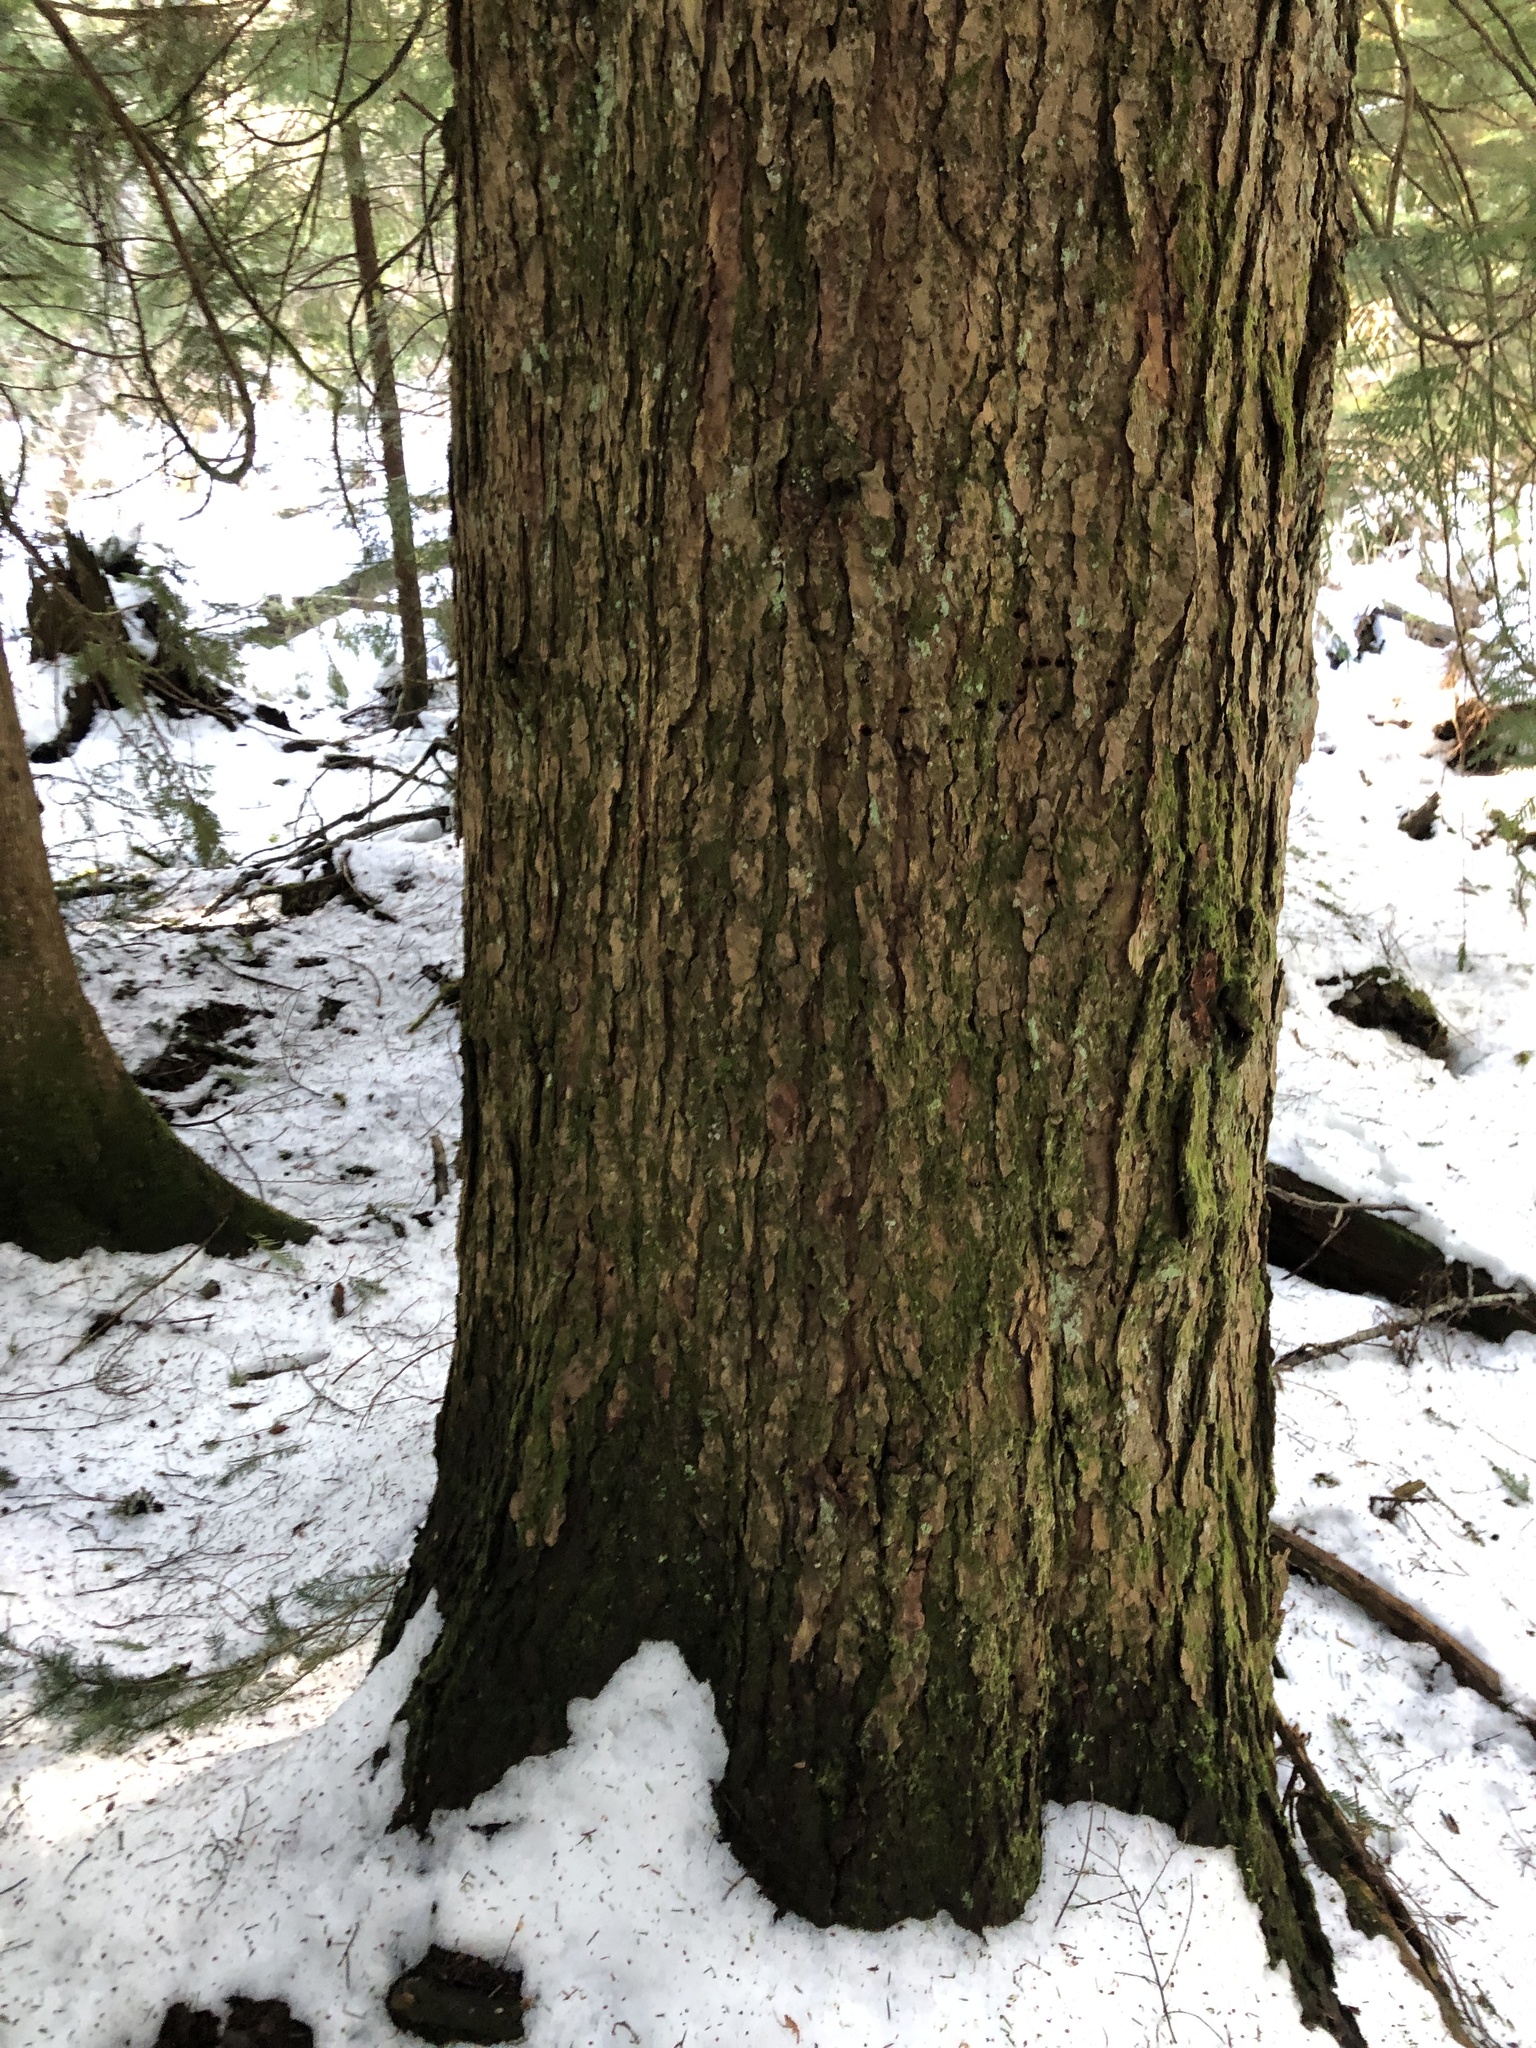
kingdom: Plantae
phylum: Tracheophyta
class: Pinopsida
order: Pinales
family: Pinaceae
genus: Tsuga
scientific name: Tsuga heterophylla
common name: Western hemlock
